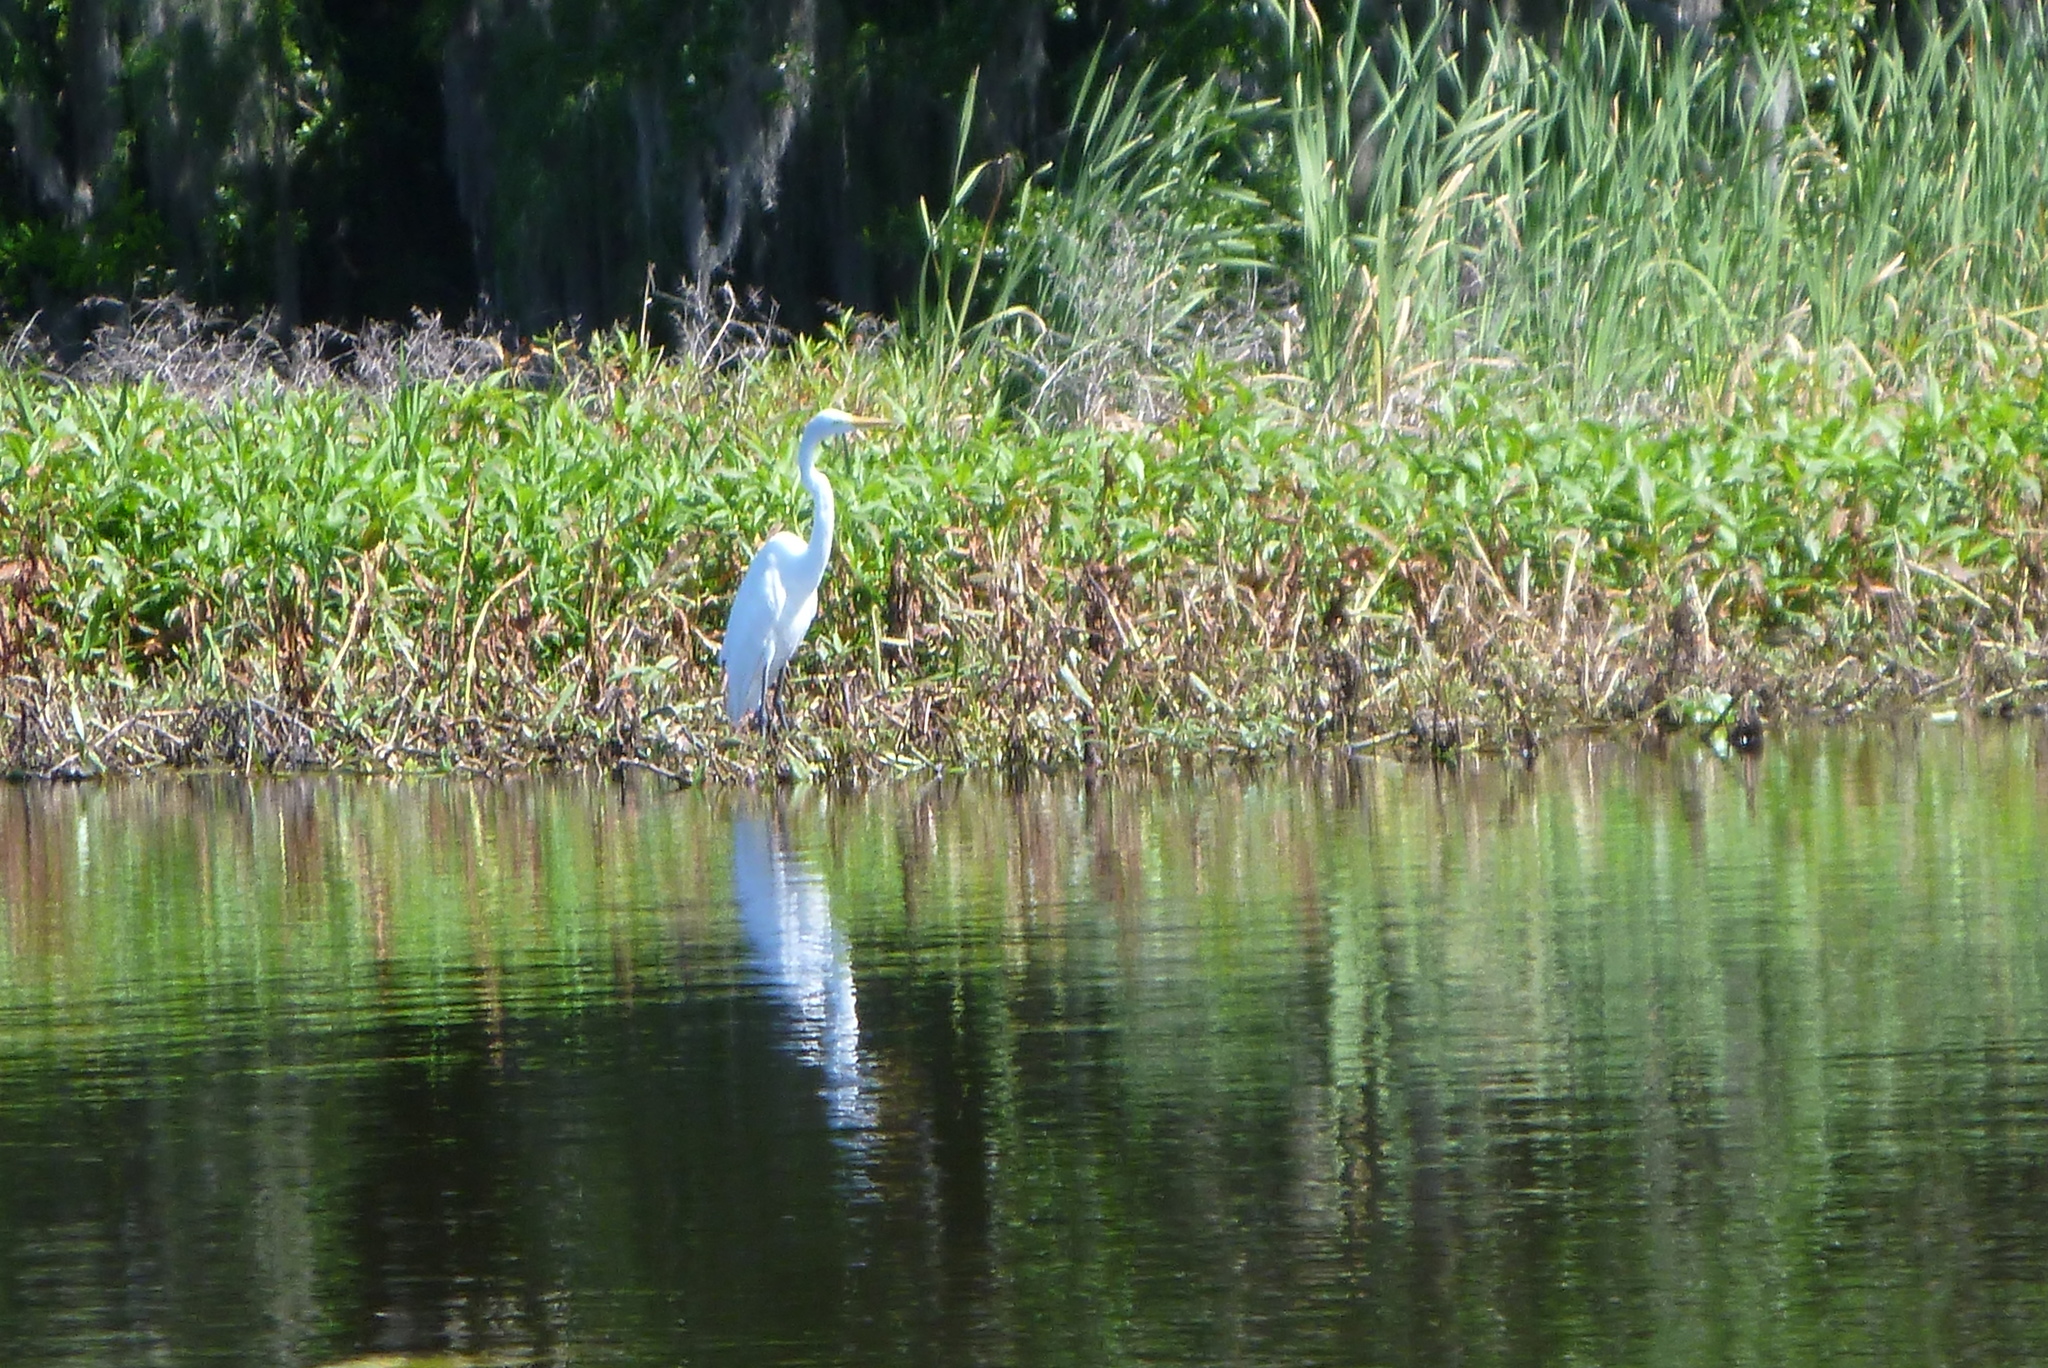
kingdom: Animalia
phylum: Chordata
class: Aves
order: Pelecaniformes
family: Ardeidae
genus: Ardea
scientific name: Ardea alba
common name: Great egret
